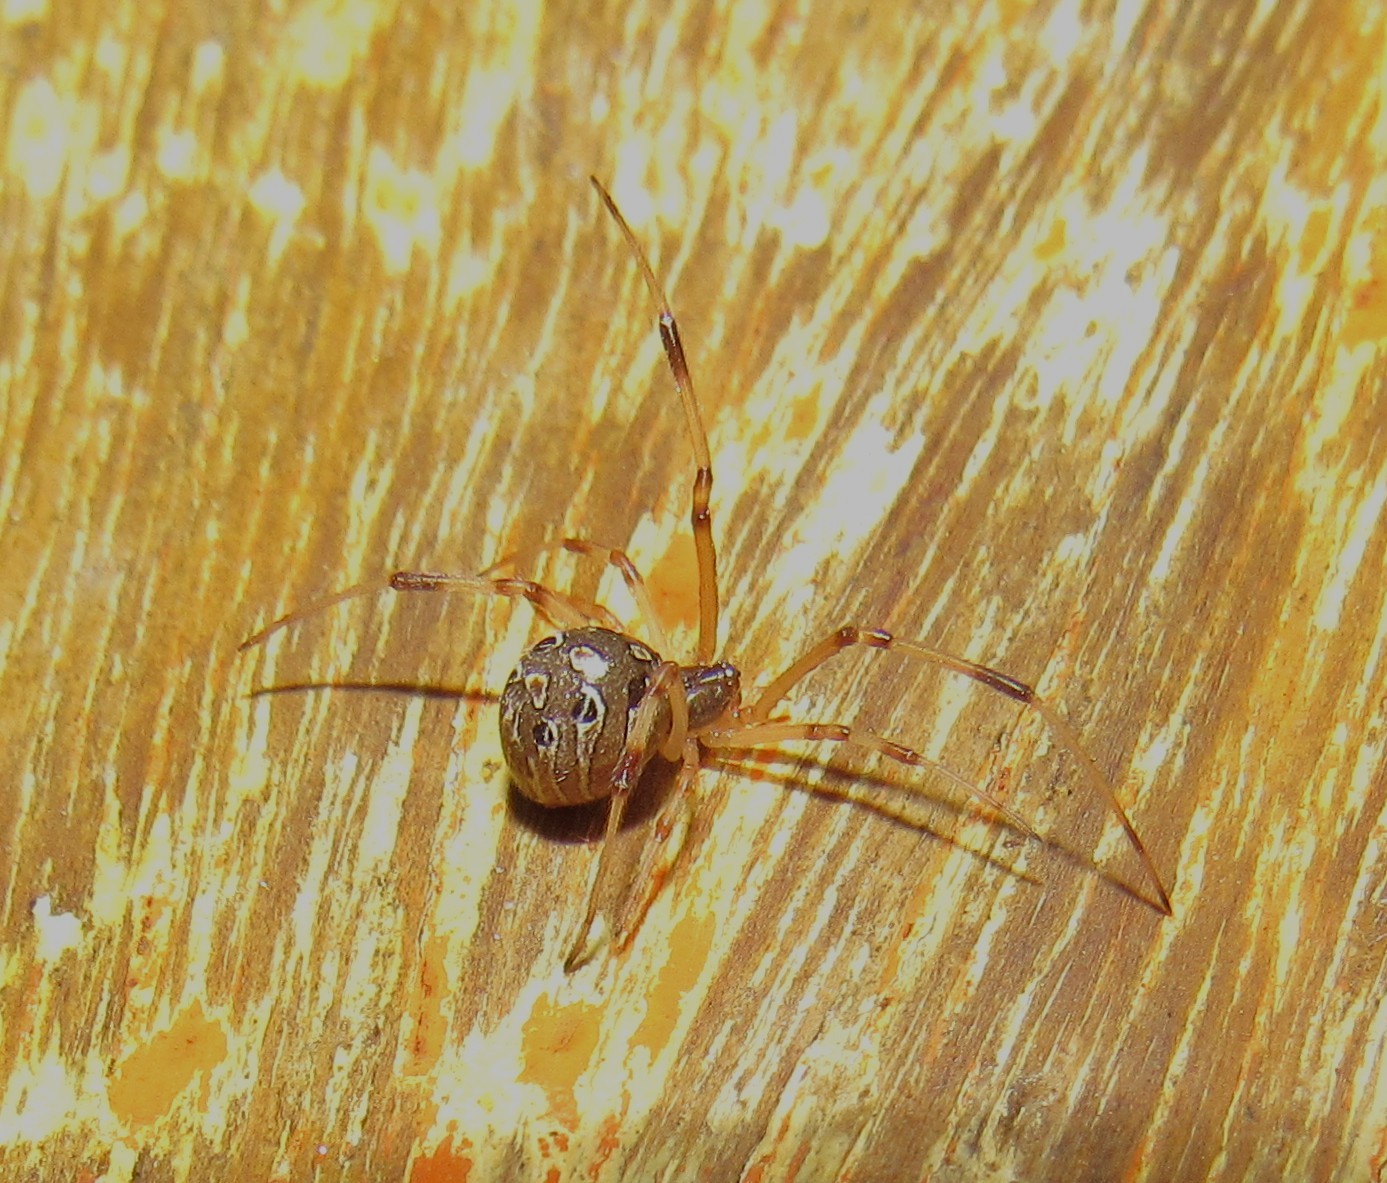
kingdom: Animalia
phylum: Arthropoda
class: Arachnida
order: Araneae
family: Theridiidae
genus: Latrodectus
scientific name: Latrodectus geometricus
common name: Brown widow spider
